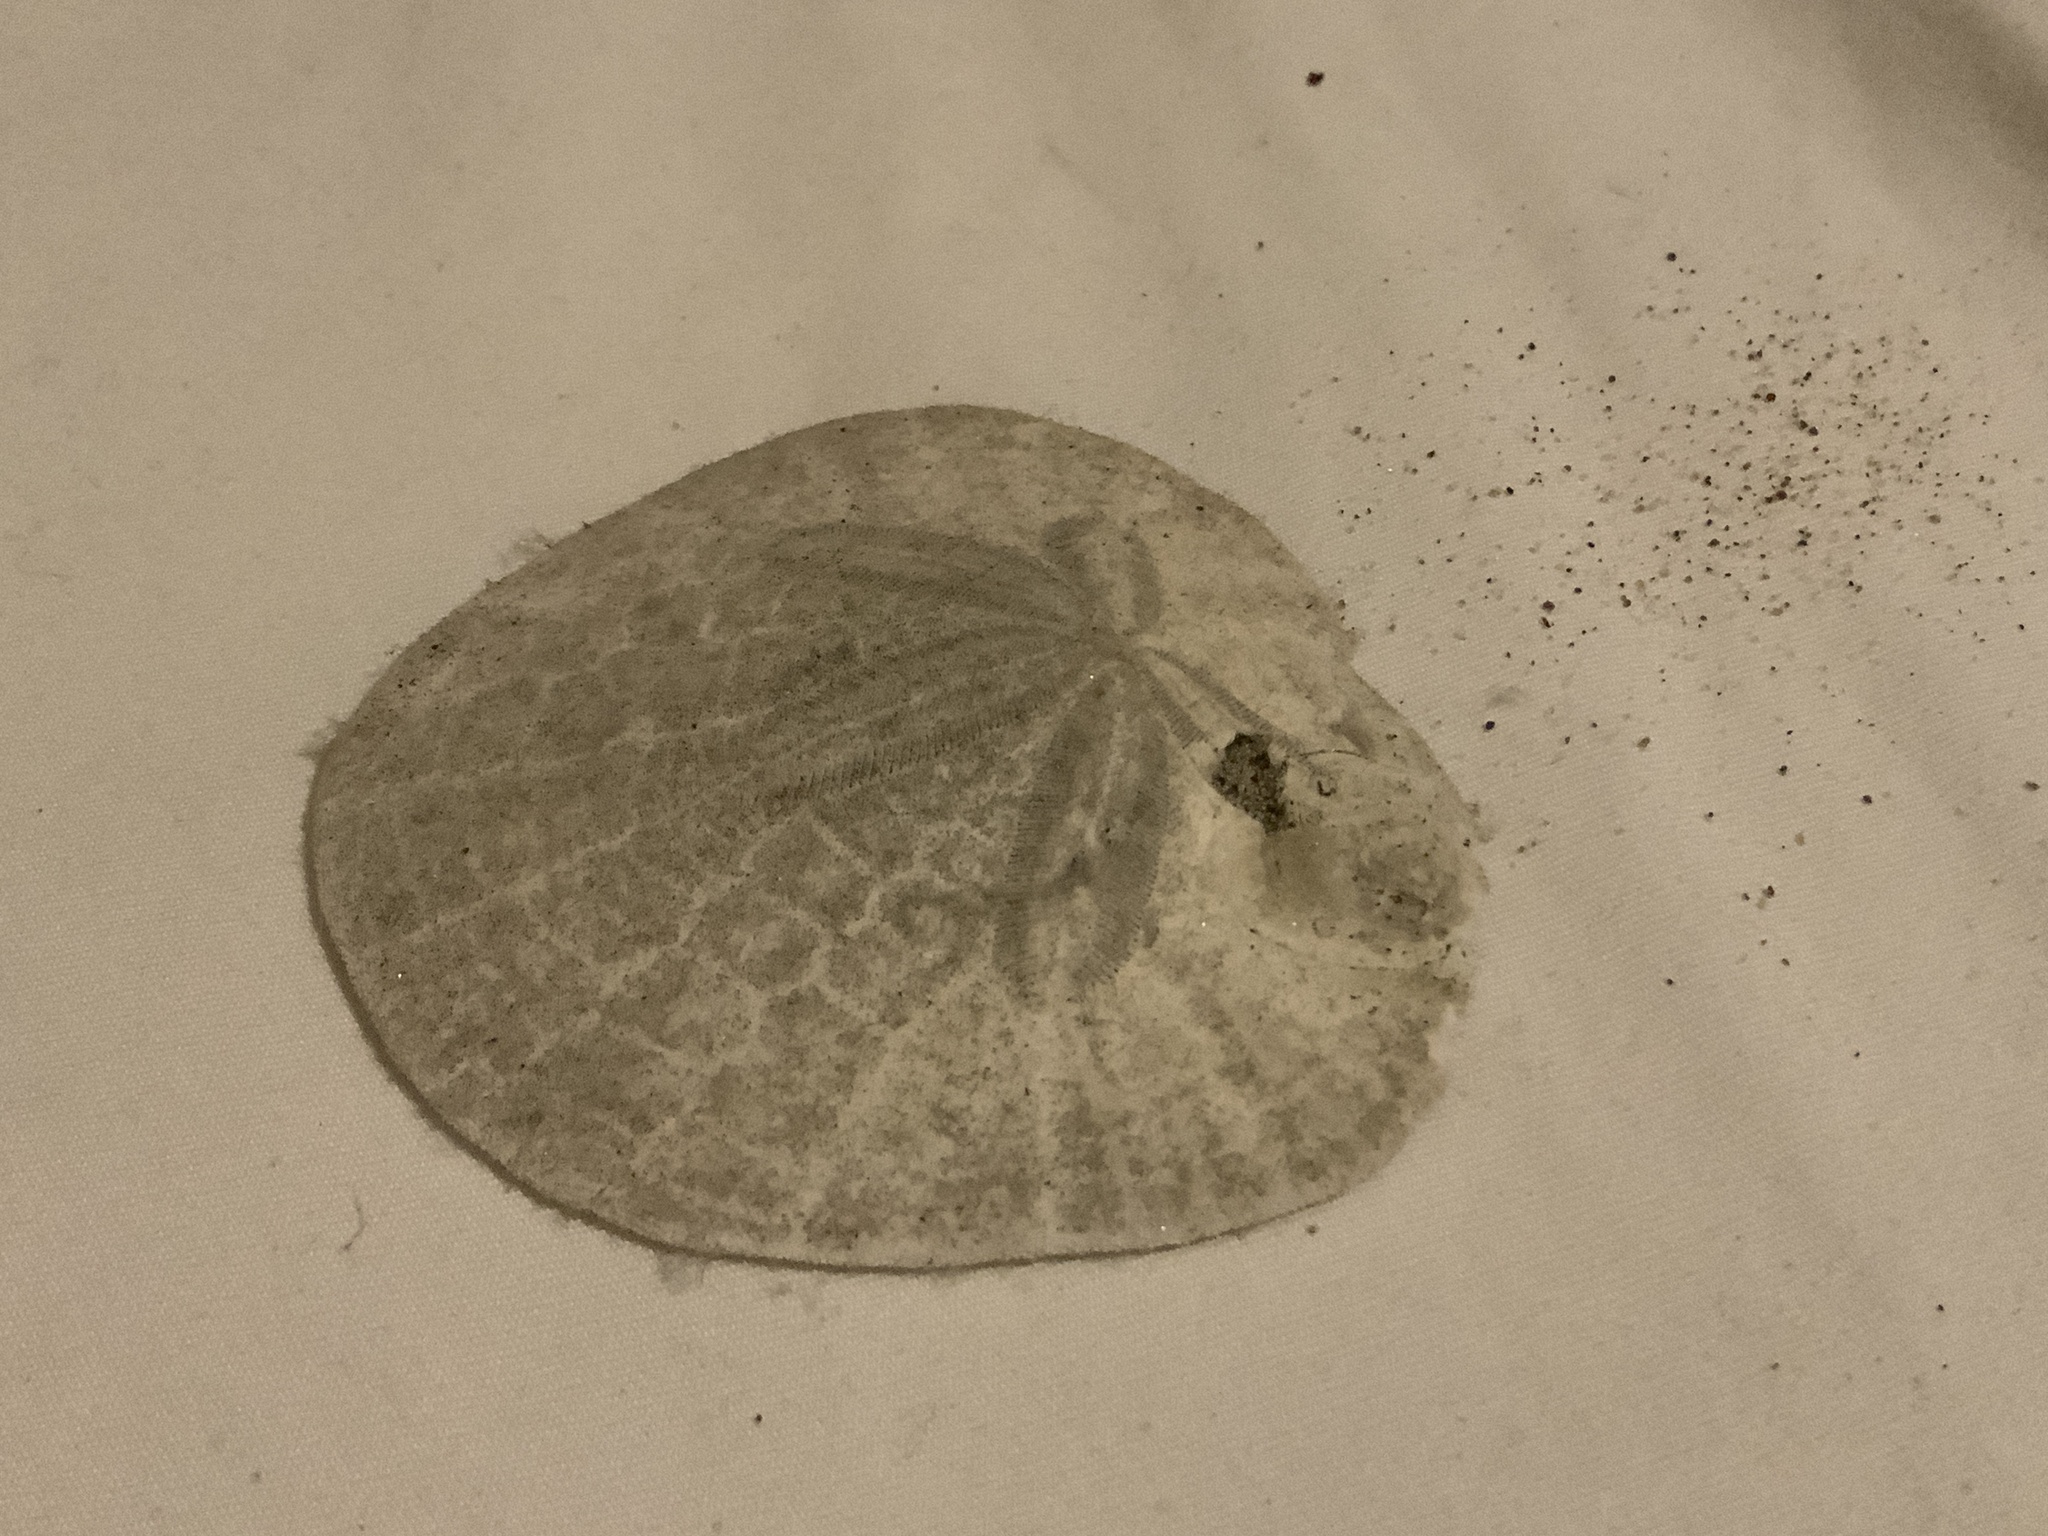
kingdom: Animalia
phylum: Echinodermata
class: Echinoidea
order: Echinolampadacea
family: Dendrasteridae
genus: Dendraster
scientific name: Dendraster excentricus
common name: Eccentric sand dollar sea urchin
